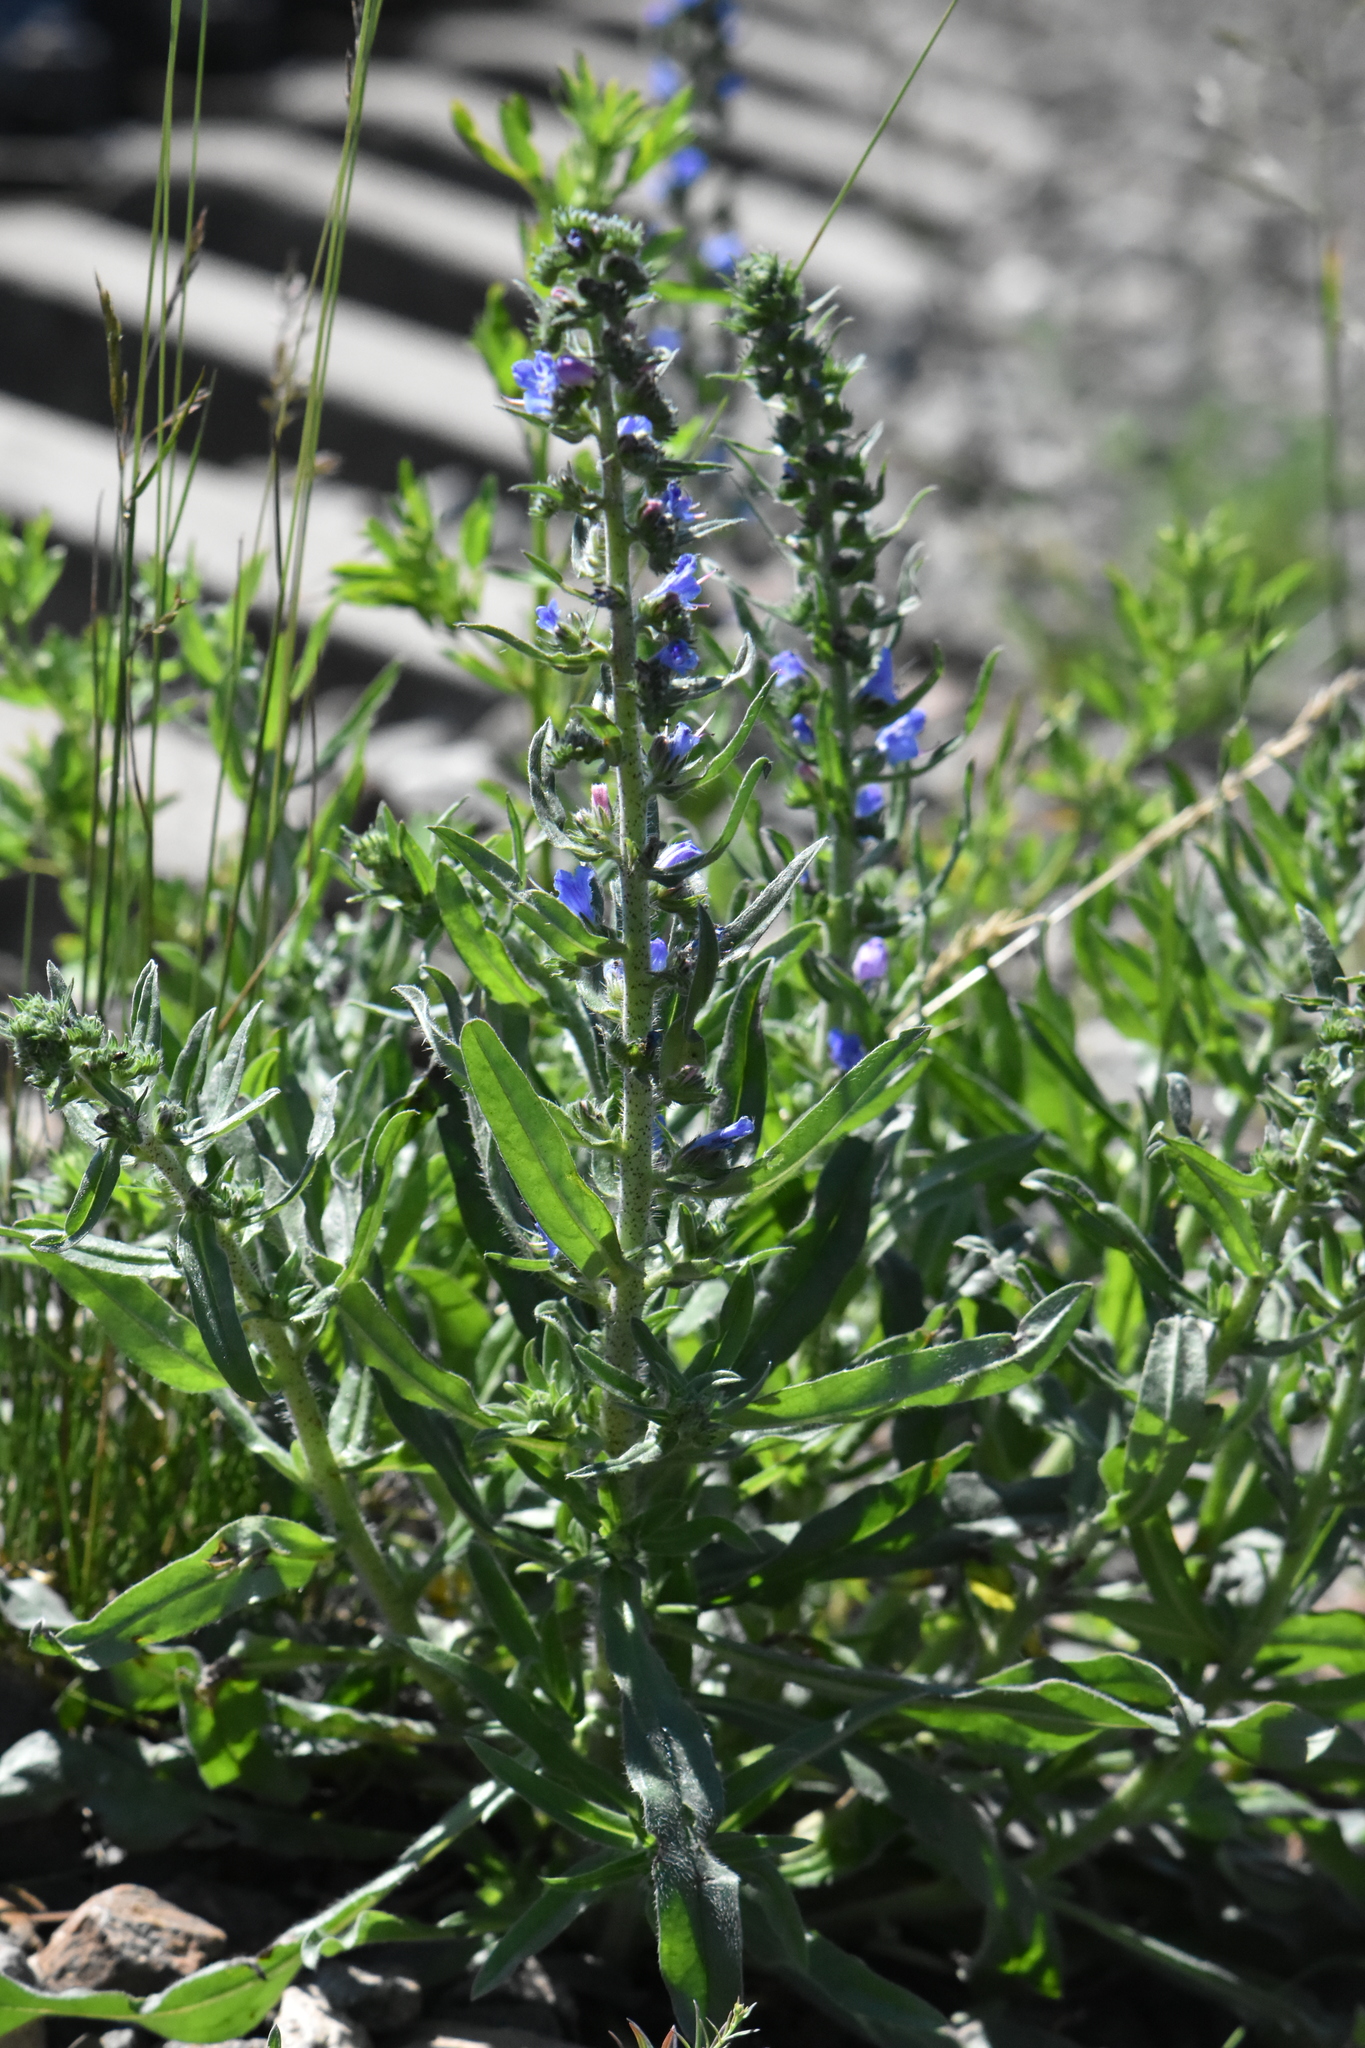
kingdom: Plantae
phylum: Tracheophyta
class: Magnoliopsida
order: Boraginales
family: Boraginaceae
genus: Echium
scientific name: Echium vulgare
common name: Common viper's bugloss
